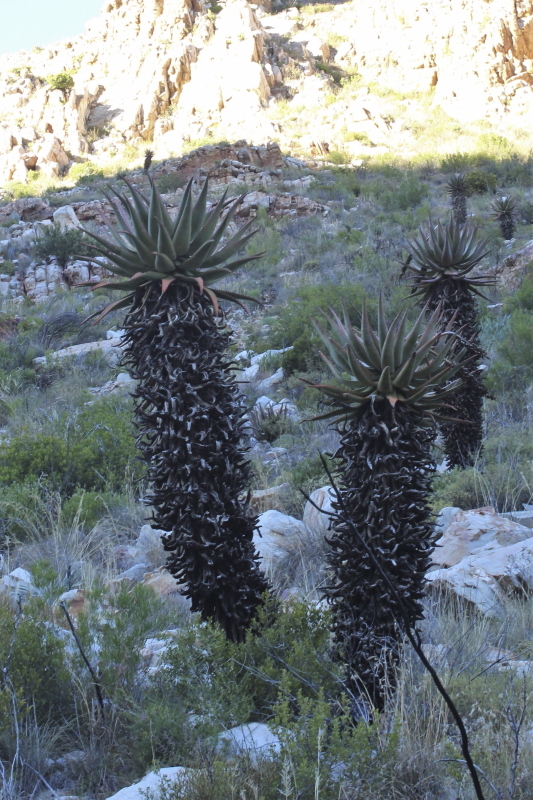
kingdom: Plantae
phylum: Tracheophyta
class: Liliopsida
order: Asparagales
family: Asphodelaceae
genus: Aloe
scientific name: Aloe ferox
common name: Bitter aloe
